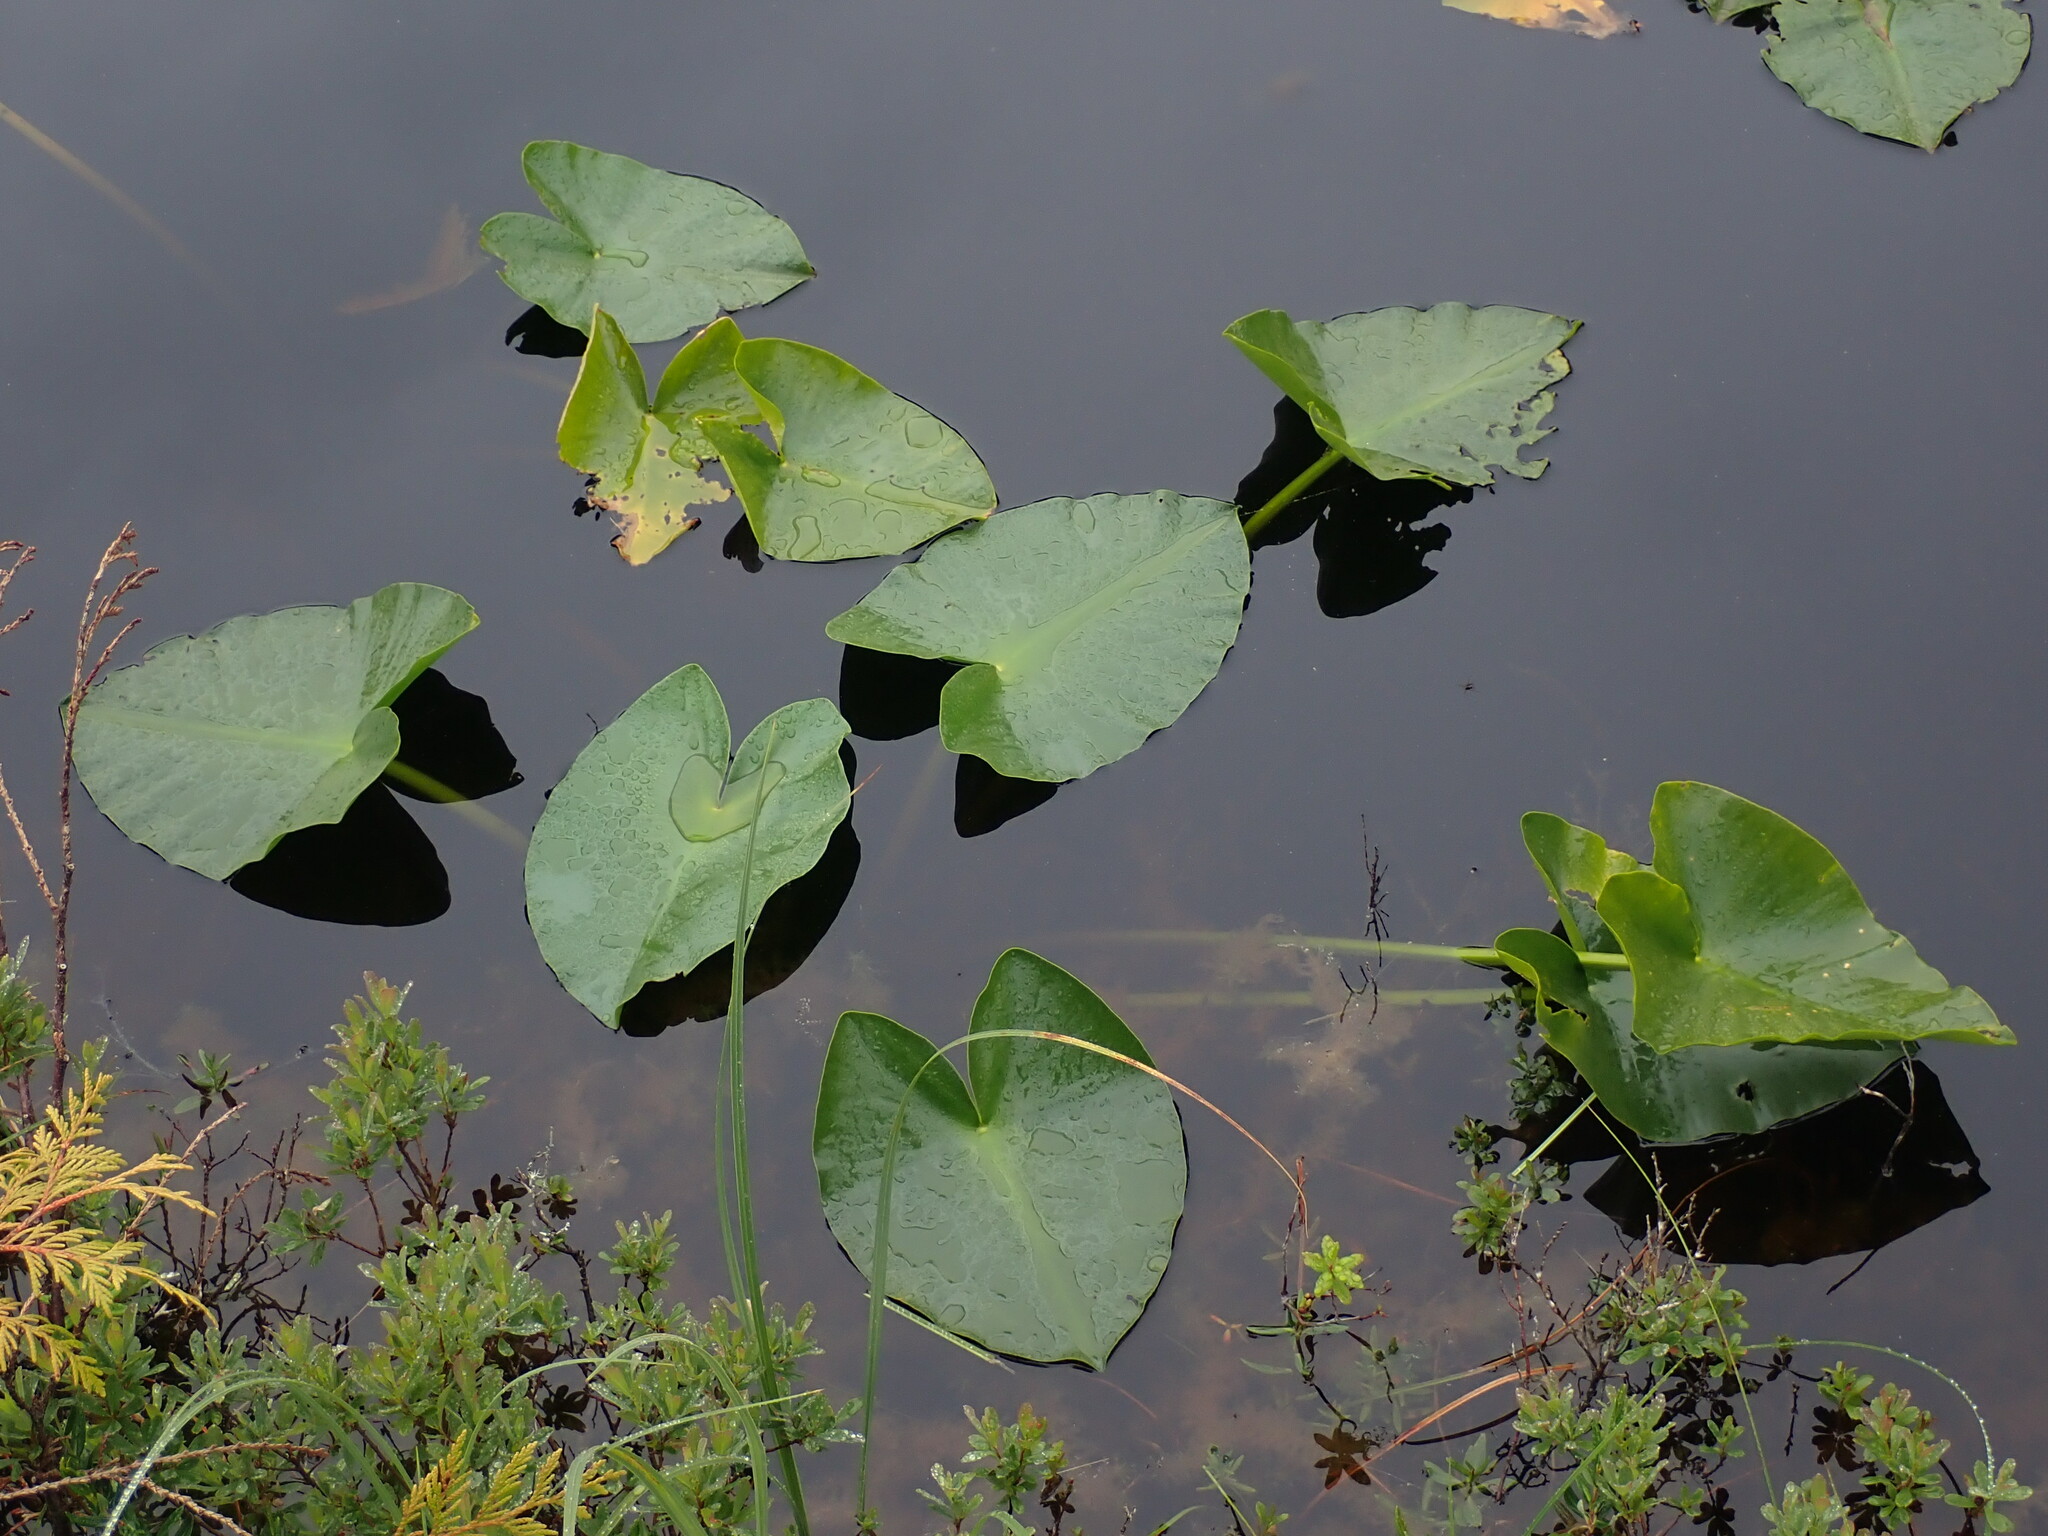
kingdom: Plantae
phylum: Tracheophyta
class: Magnoliopsida
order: Nymphaeales
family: Nymphaeaceae
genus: Nuphar
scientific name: Nuphar polysepala
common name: Rocky mountain cow-lily
